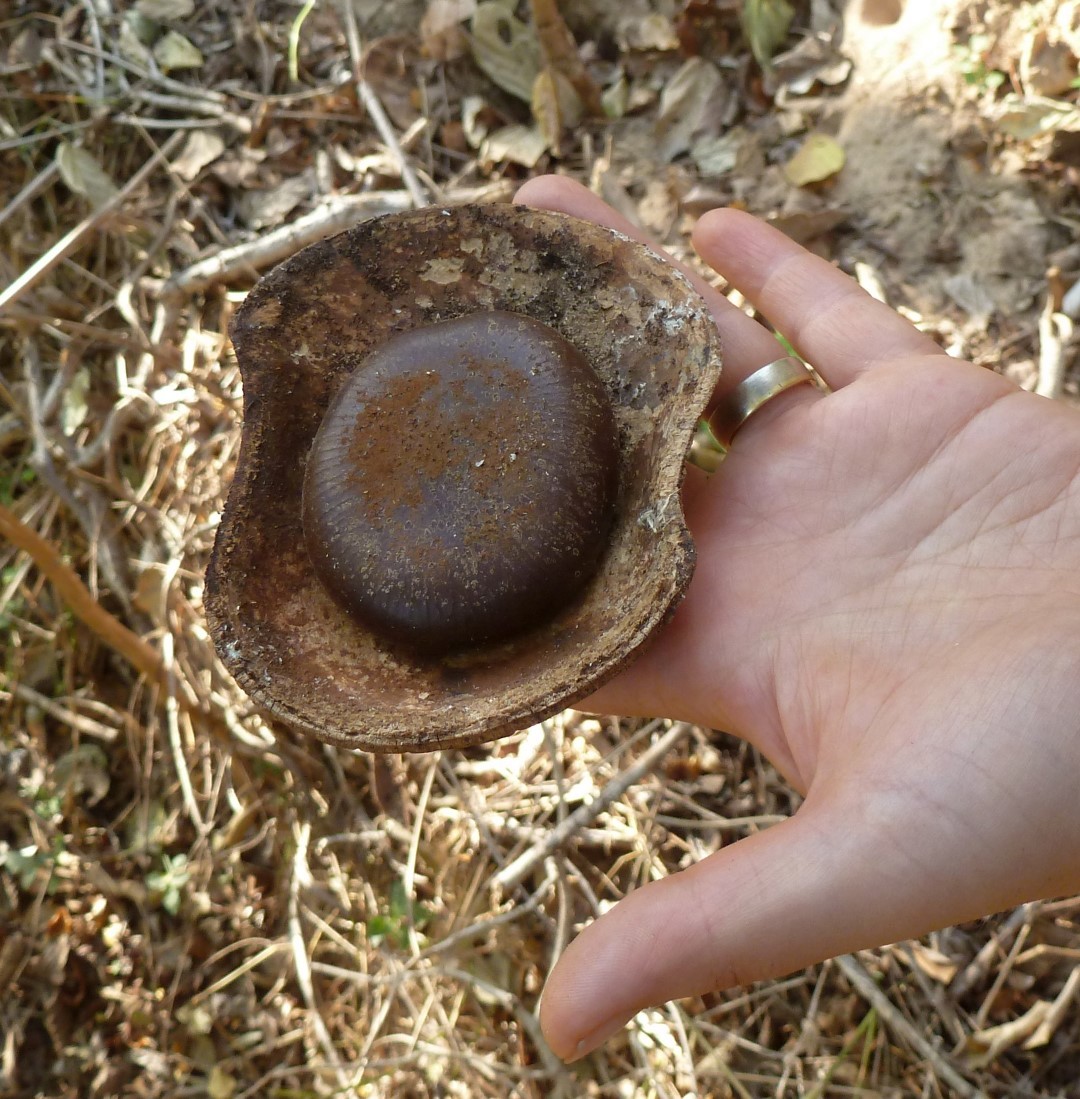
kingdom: Plantae
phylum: Tracheophyta
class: Magnoliopsida
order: Fabales
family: Fabaceae
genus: Entada
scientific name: Entada rheedei
